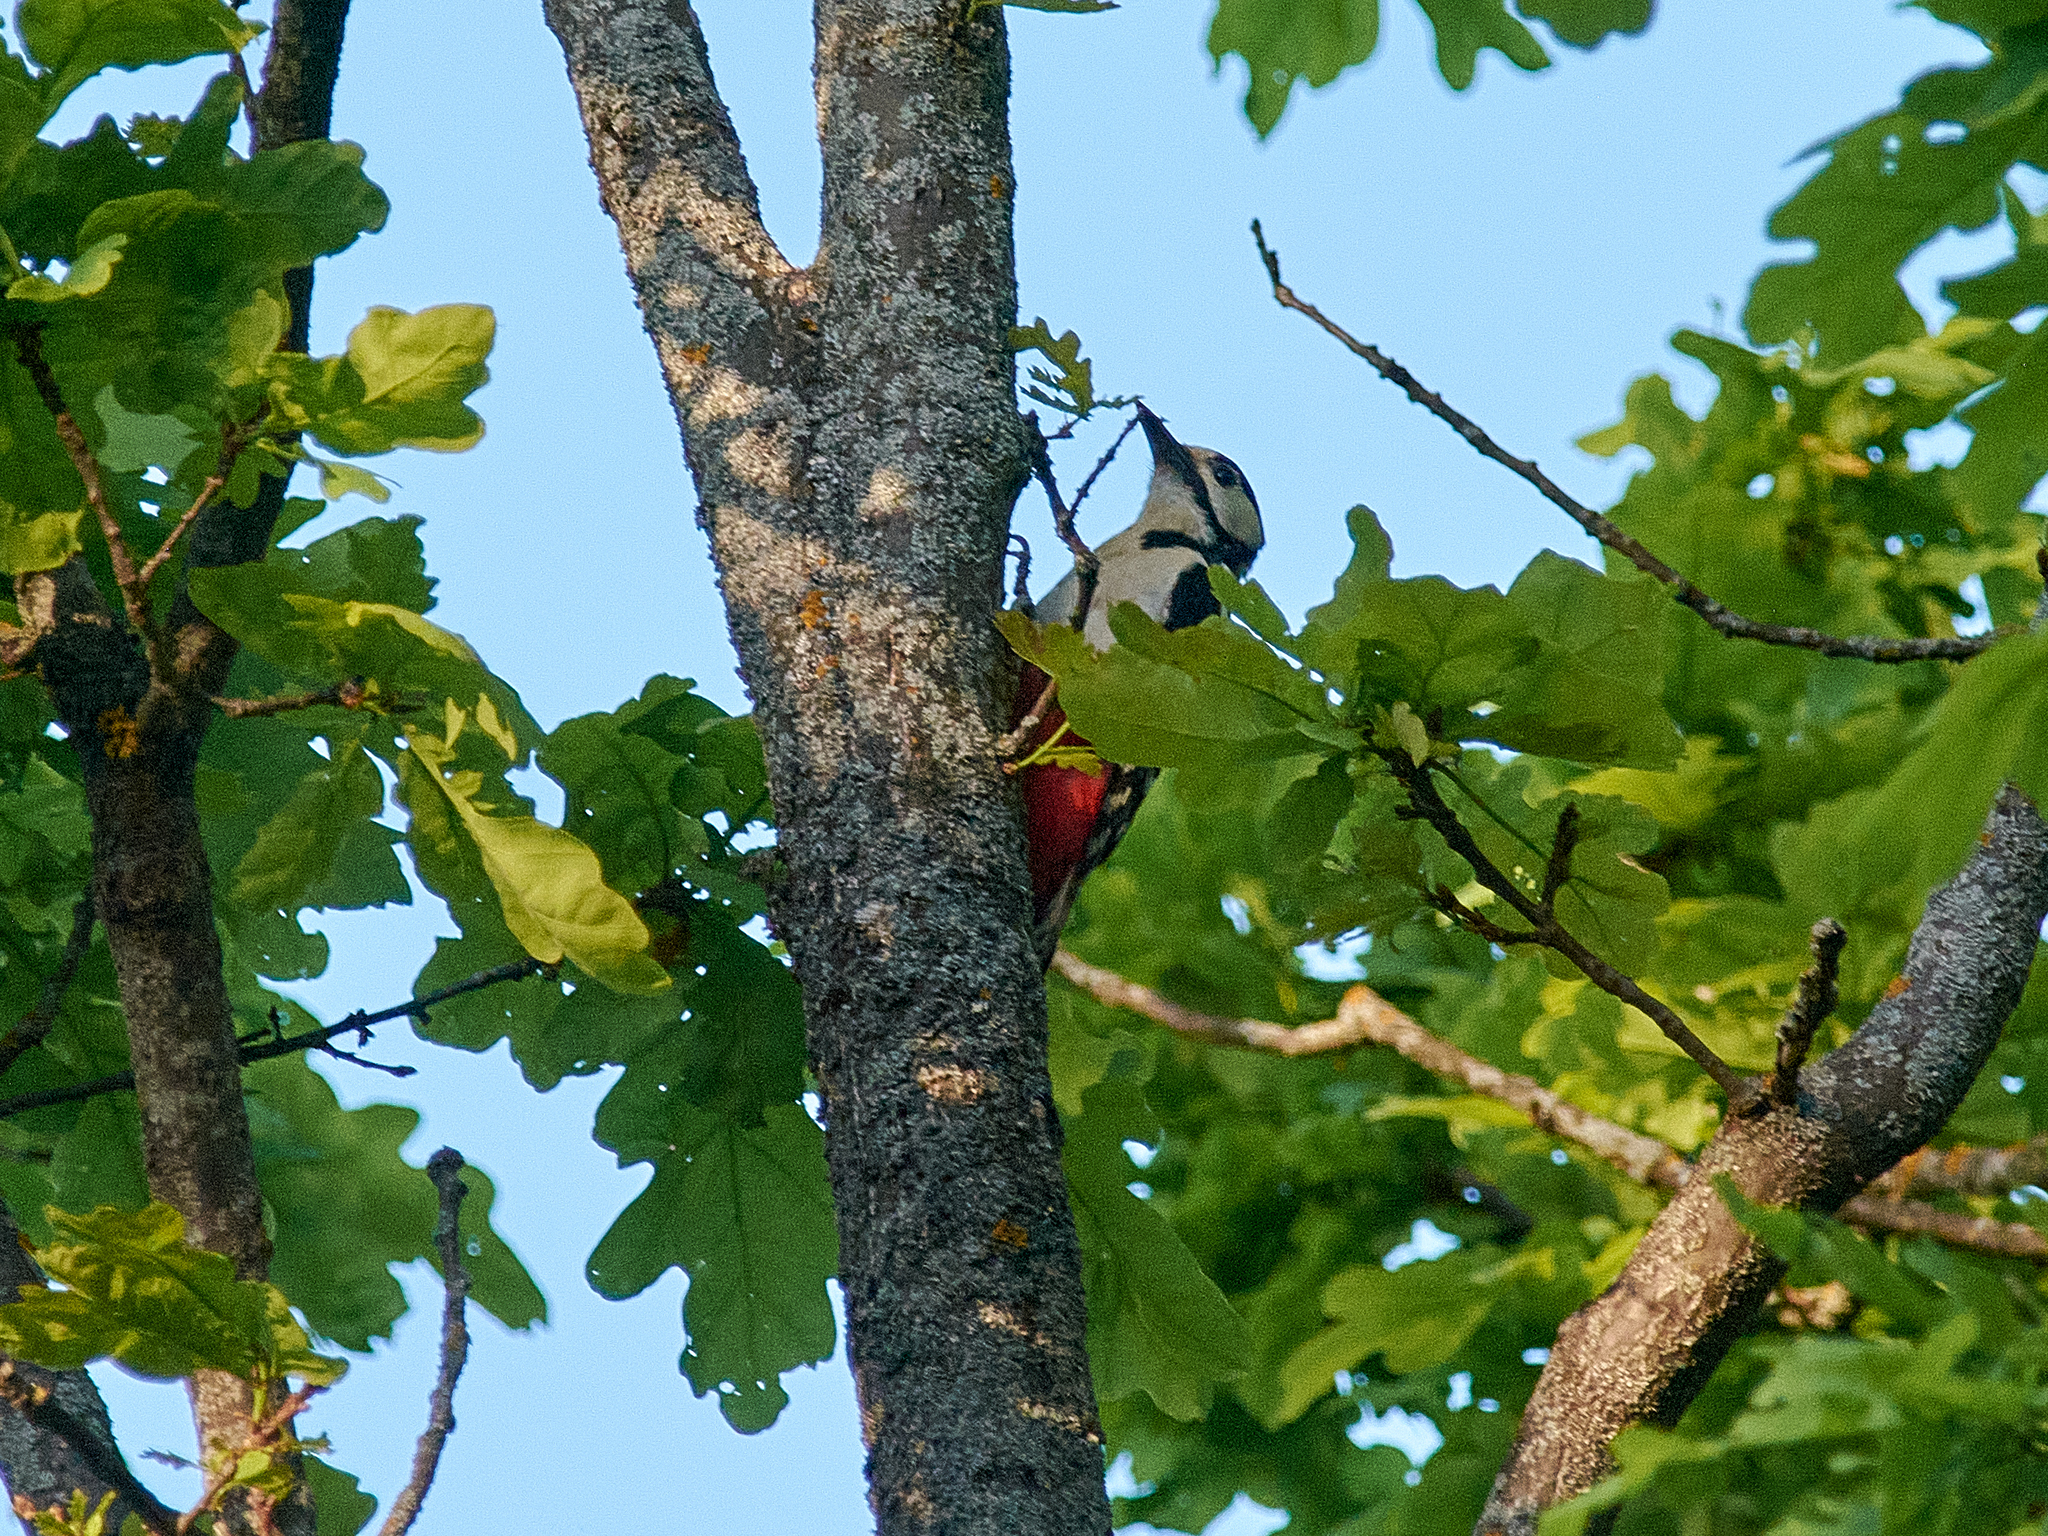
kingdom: Animalia
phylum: Chordata
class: Aves
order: Piciformes
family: Picidae
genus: Dendrocopos
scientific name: Dendrocopos major
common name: Great spotted woodpecker
